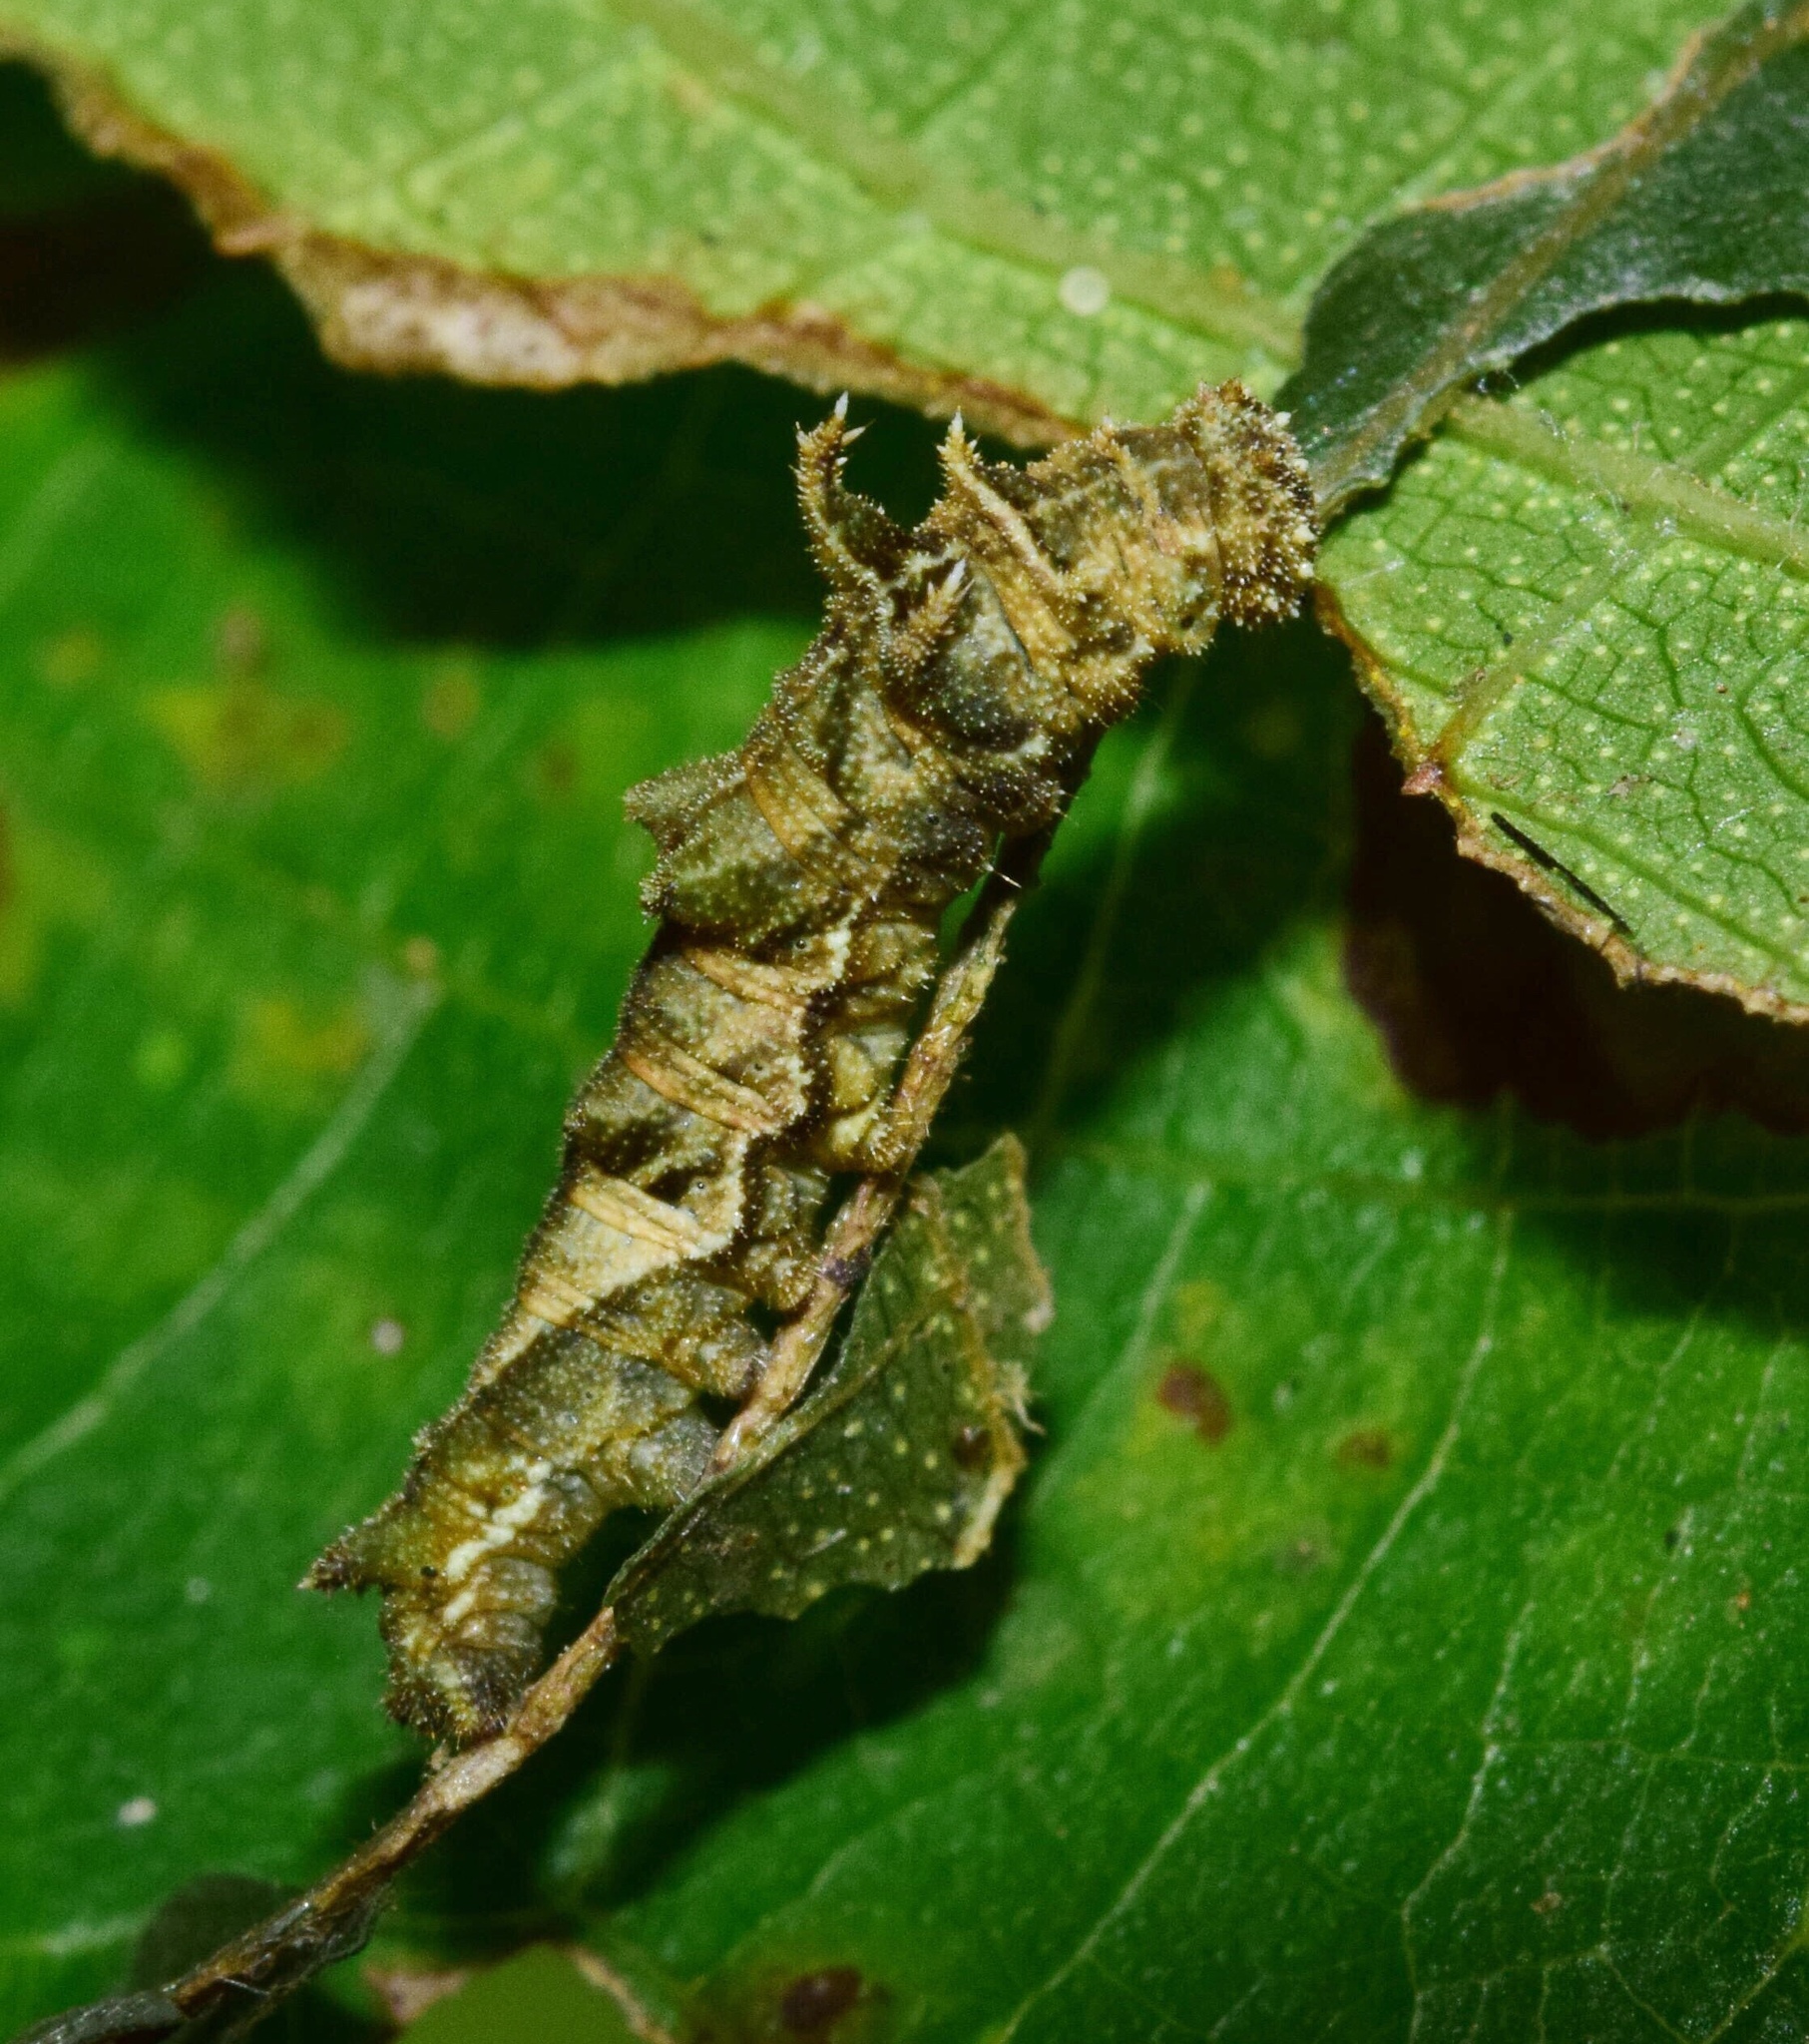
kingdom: Animalia
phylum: Arthropoda
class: Insecta
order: Lepidoptera
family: Nymphalidae
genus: Neptis
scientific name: Neptis saclava
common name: Small spotted sailor
